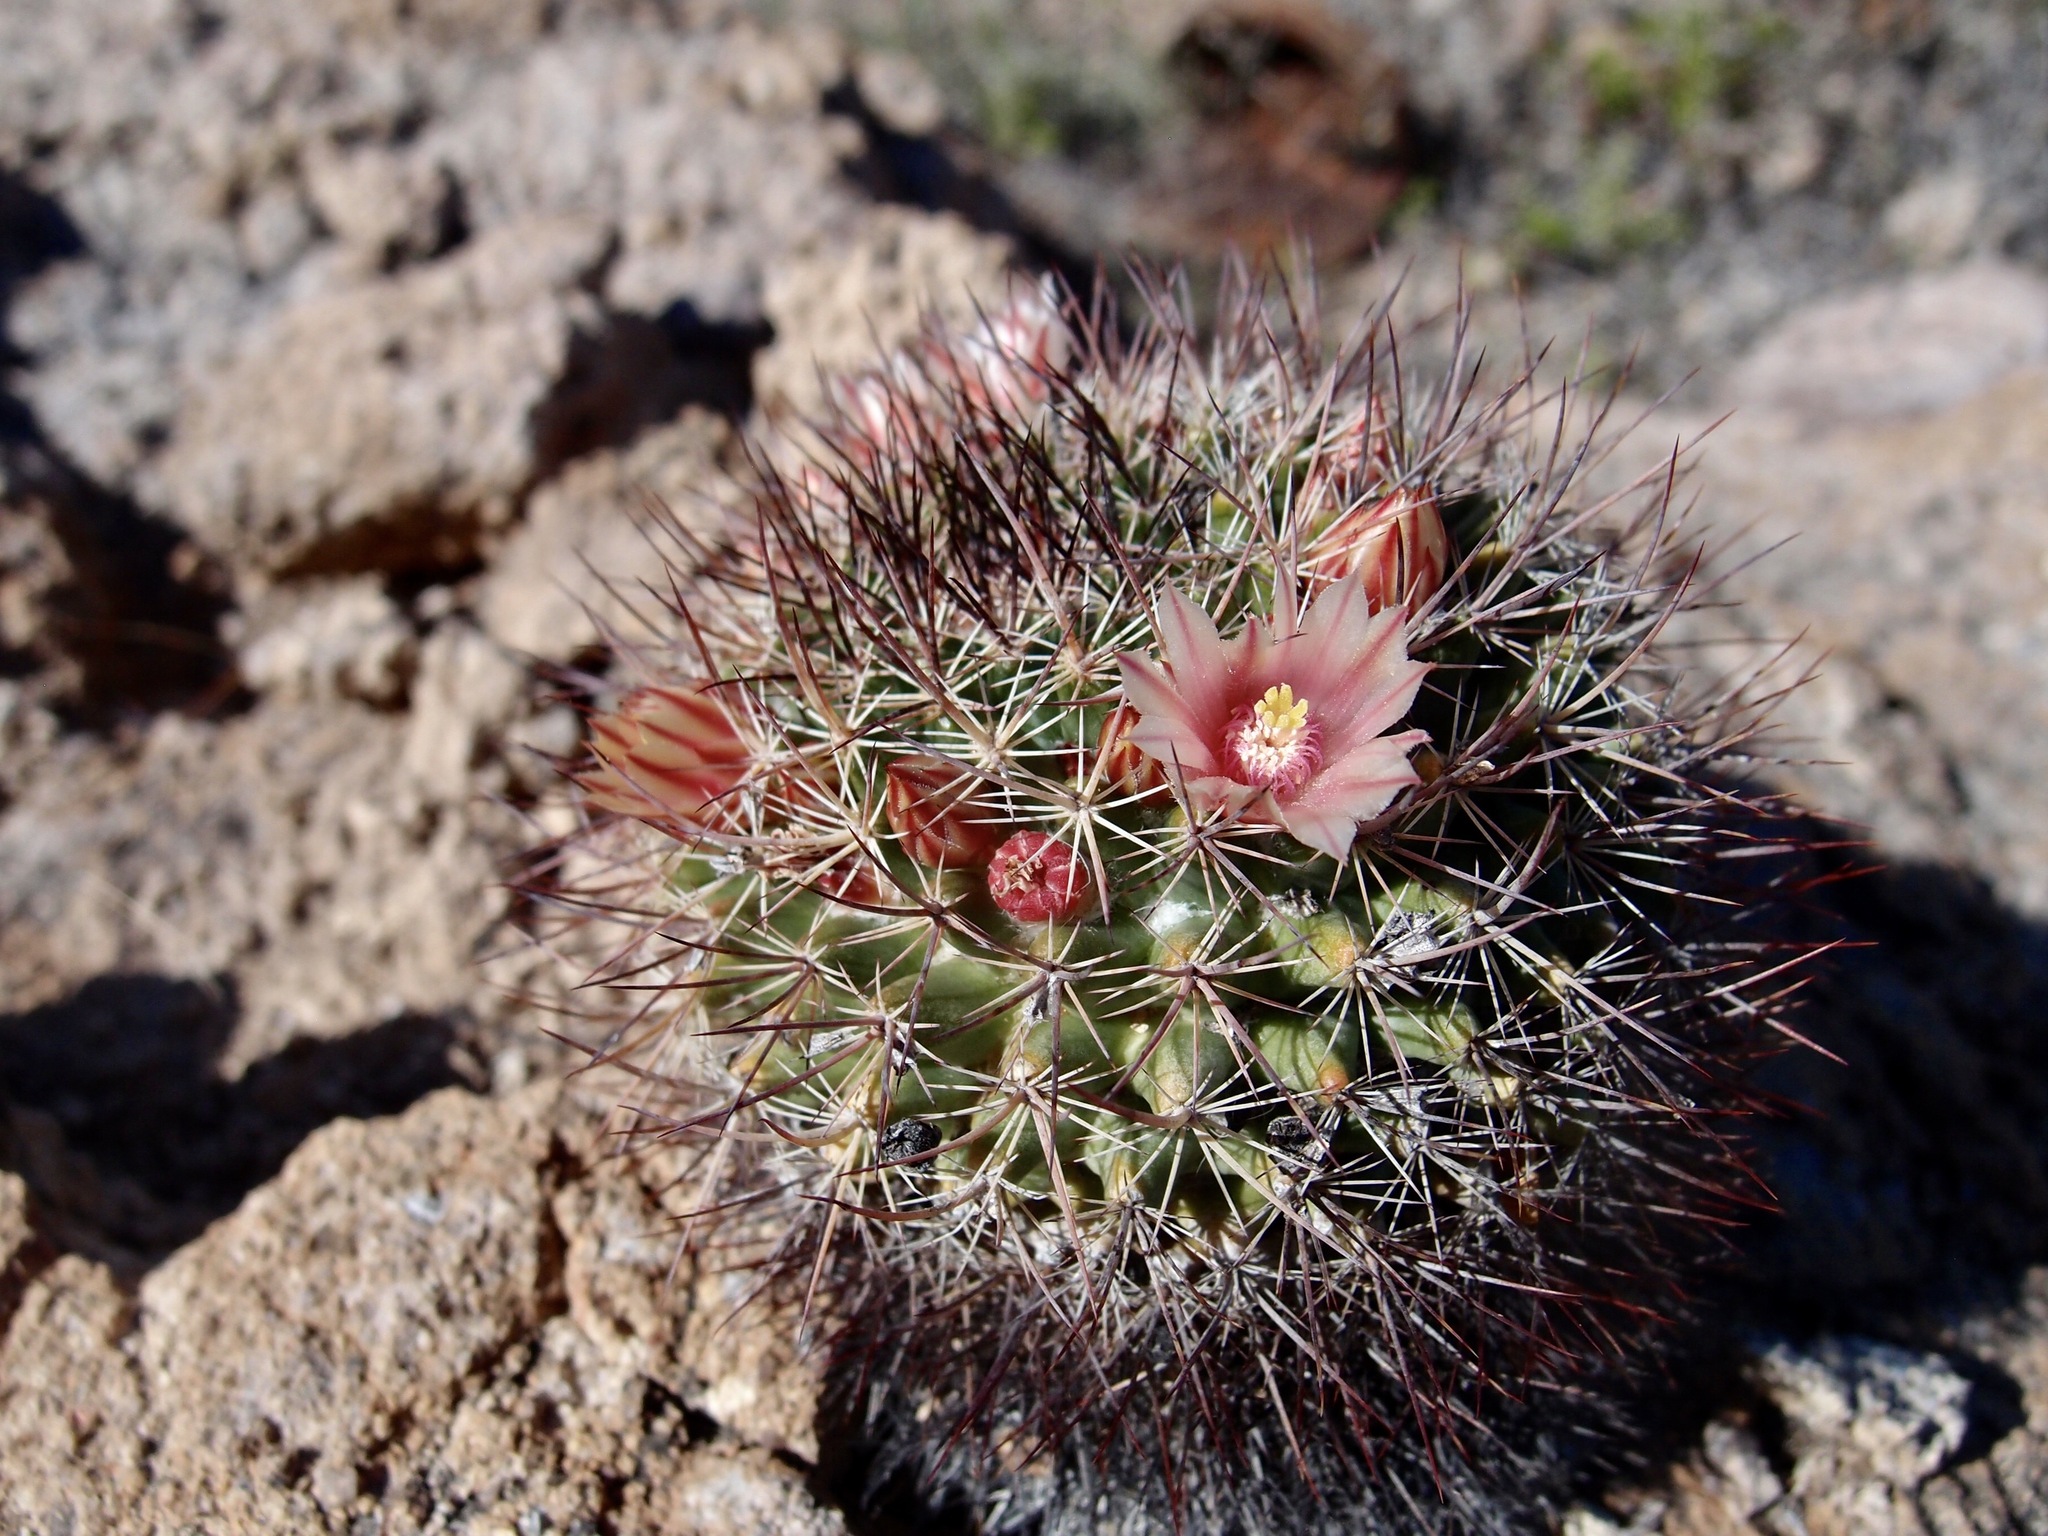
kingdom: Plantae
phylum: Tracheophyta
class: Magnoliopsida
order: Caryophyllales
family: Cactaceae
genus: Mammillaria
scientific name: Mammillaria johnstonii
